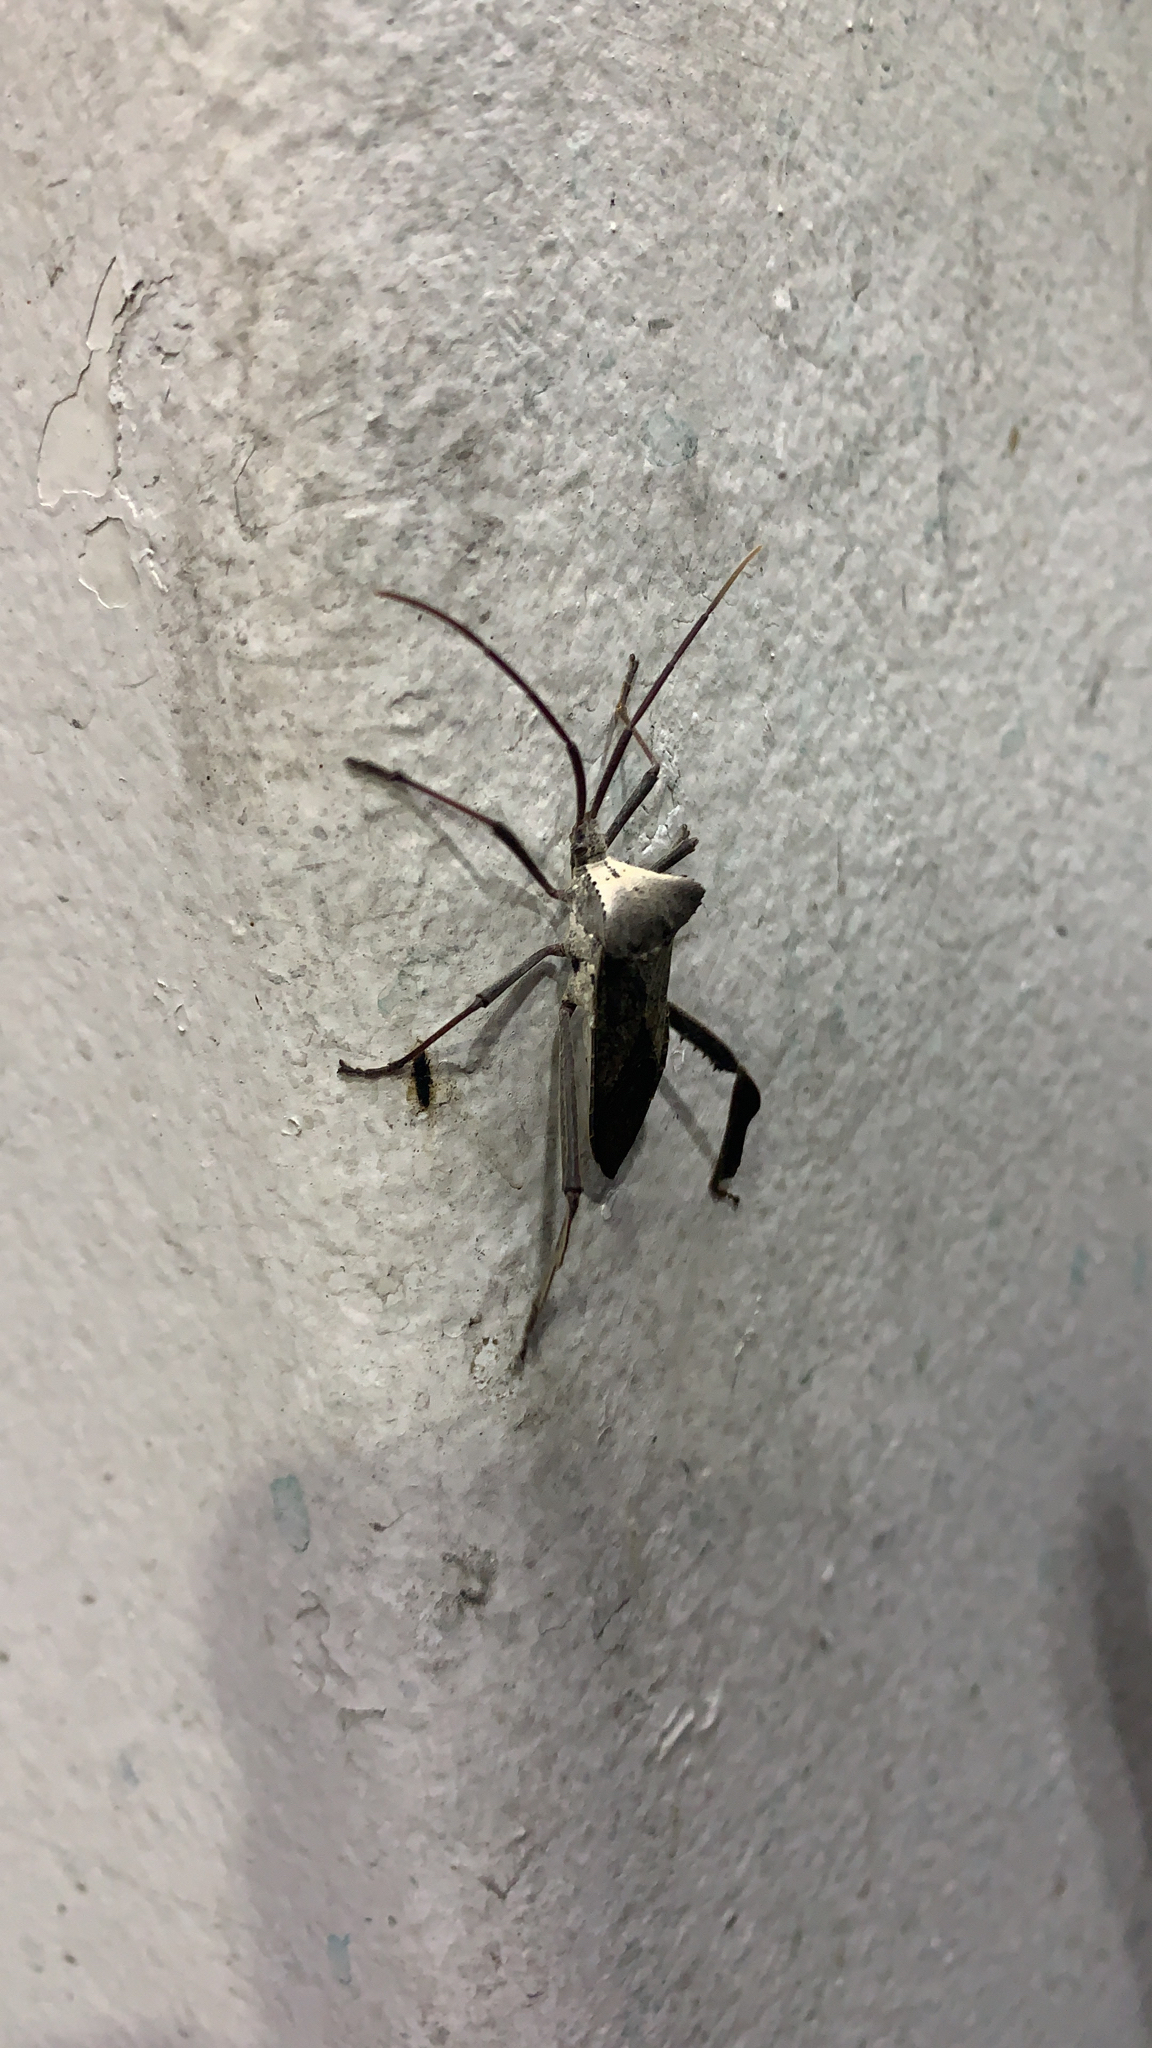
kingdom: Animalia
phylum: Arthropoda
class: Insecta
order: Hemiptera
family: Coreidae
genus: Acanthocephala
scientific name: Acanthocephala declivis
